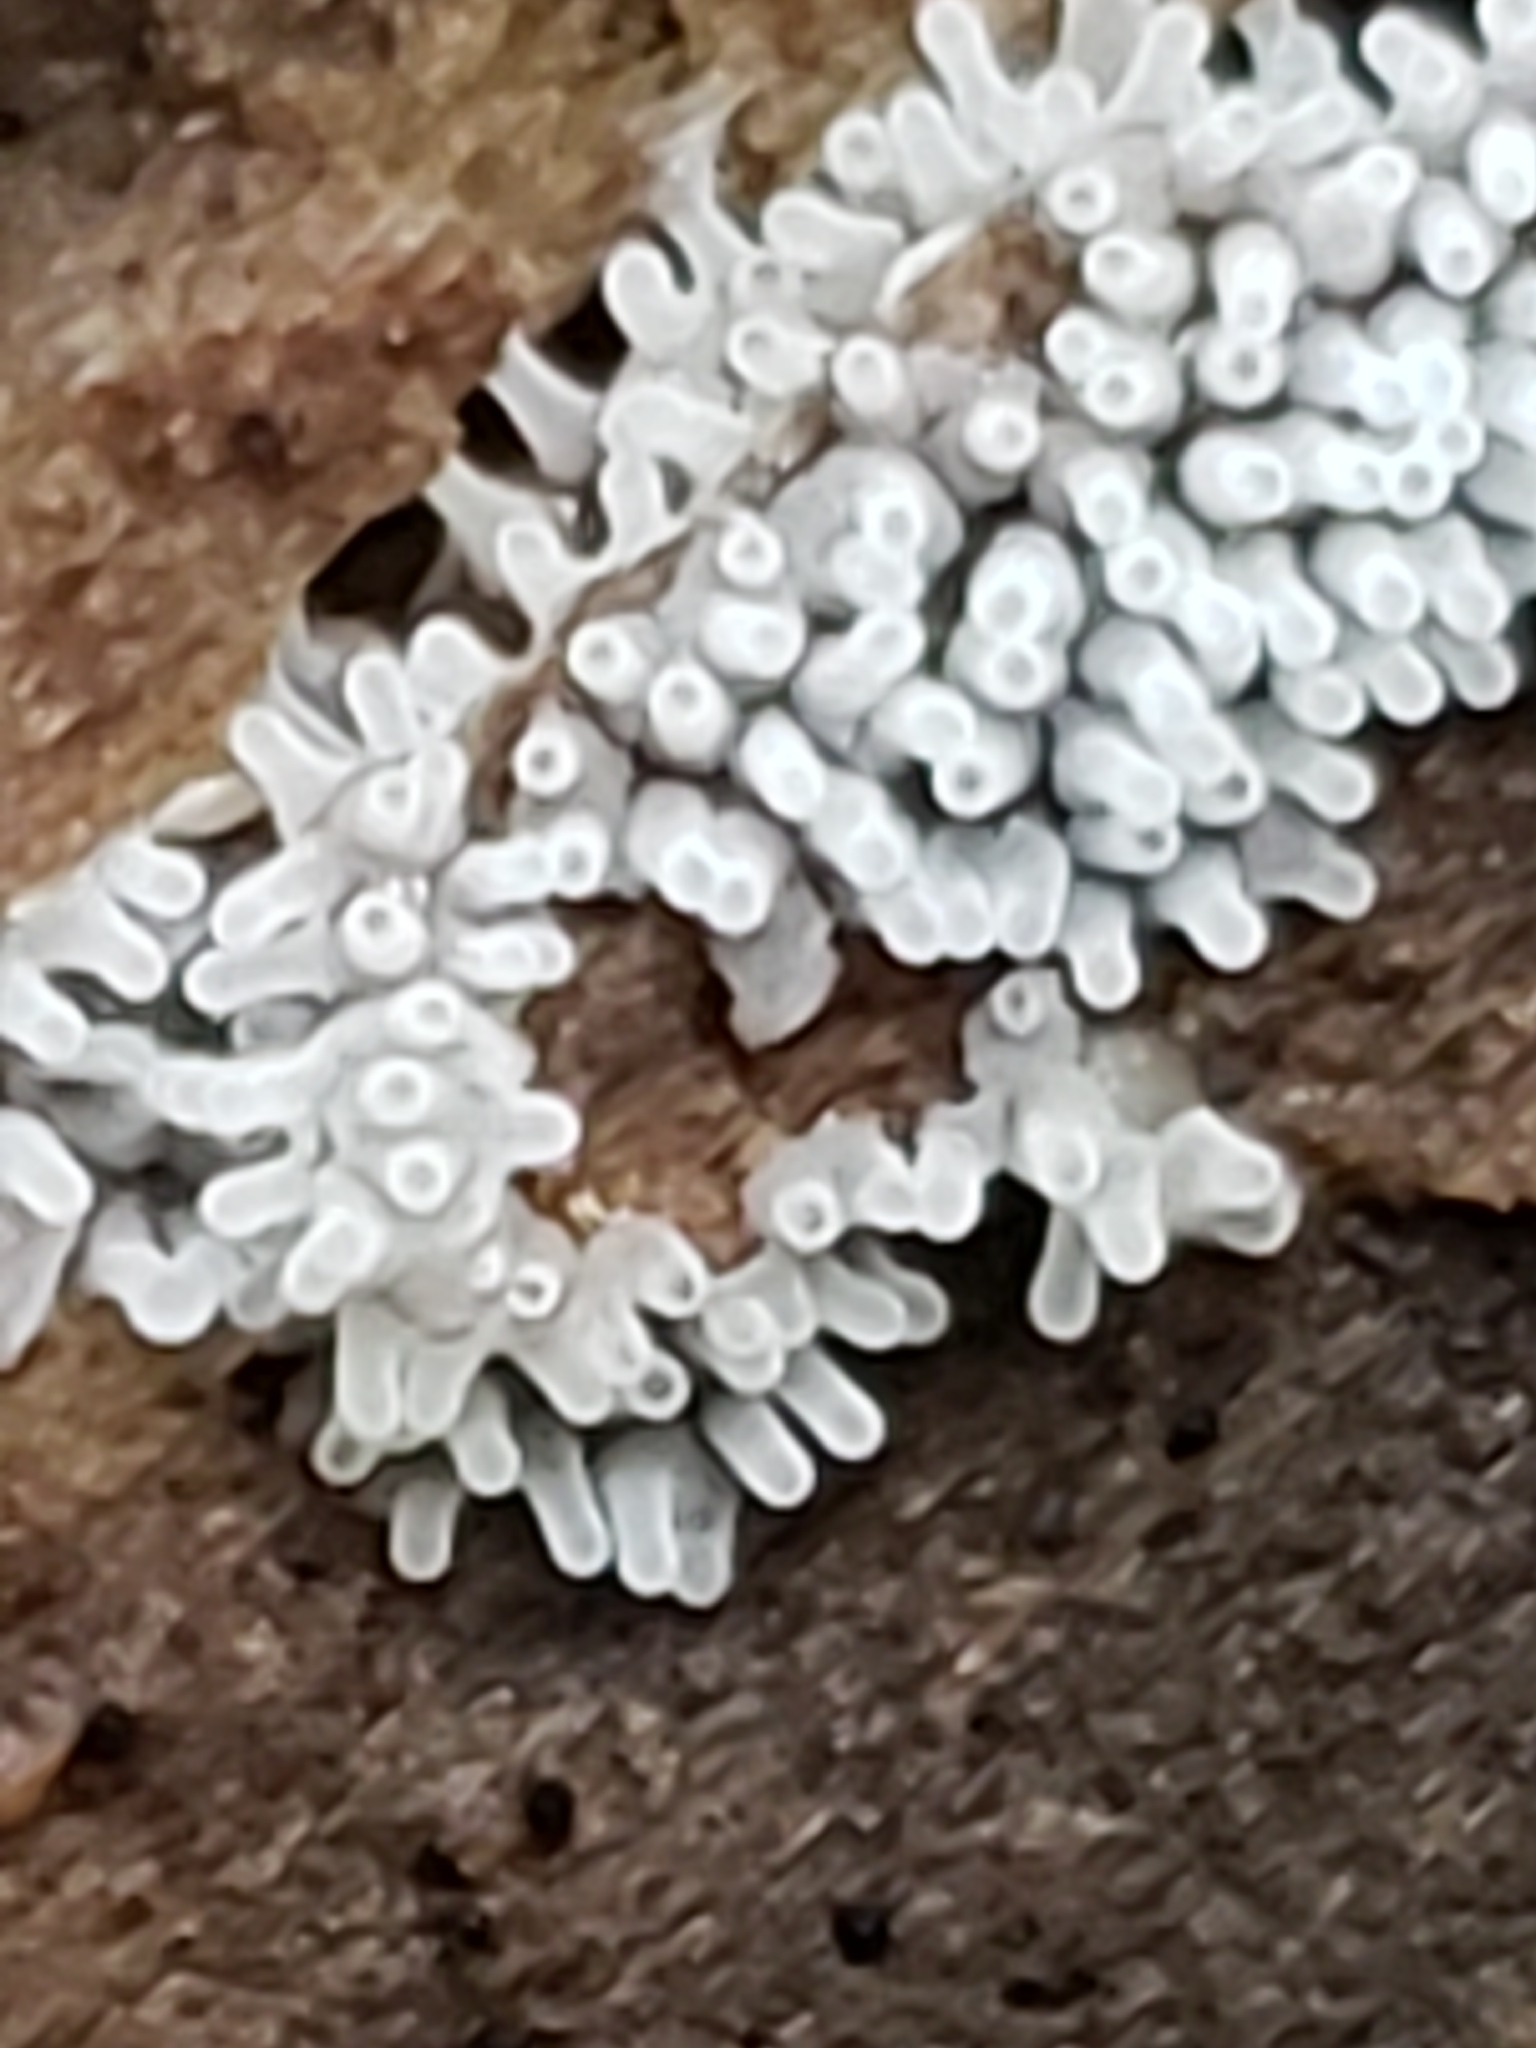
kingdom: Protozoa
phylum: Mycetozoa
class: Protosteliomycetes
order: Ceratiomyxales
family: Ceratiomyxaceae
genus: Ceratiomyxa
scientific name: Ceratiomyxa fruticulosa
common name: Honeycomb coral slime mold
